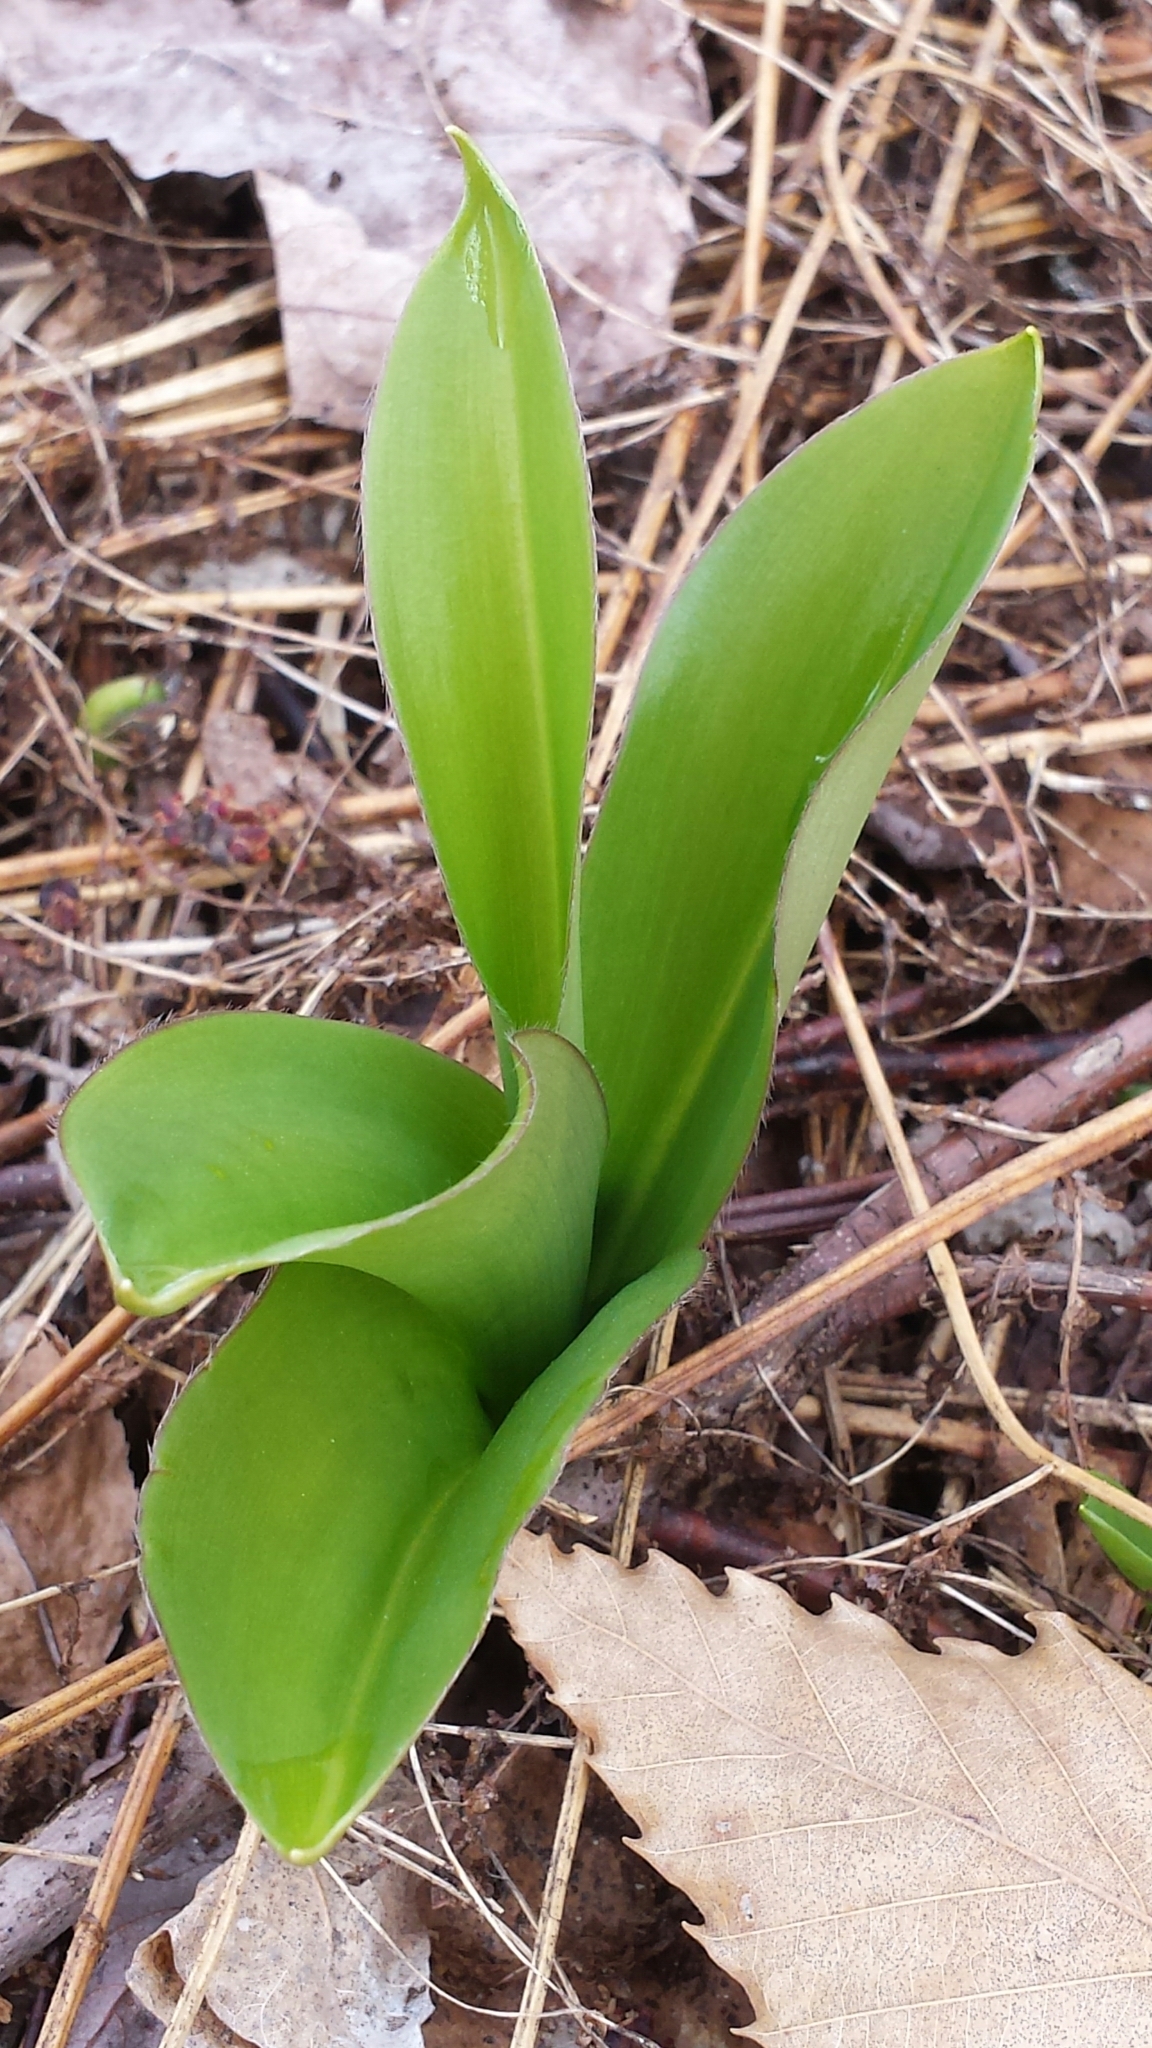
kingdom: Plantae
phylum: Tracheophyta
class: Liliopsida
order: Liliales
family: Liliaceae
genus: Clintonia
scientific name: Clintonia borealis
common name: Yellow clintonia
